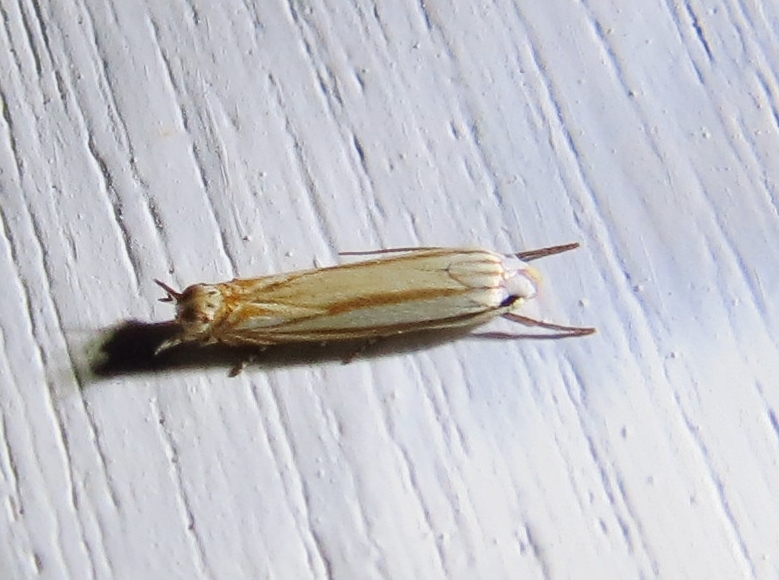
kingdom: Animalia
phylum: Arthropoda
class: Insecta
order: Lepidoptera
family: Gelechiidae
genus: Polyhymno
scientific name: Polyhymno luteostrigella
